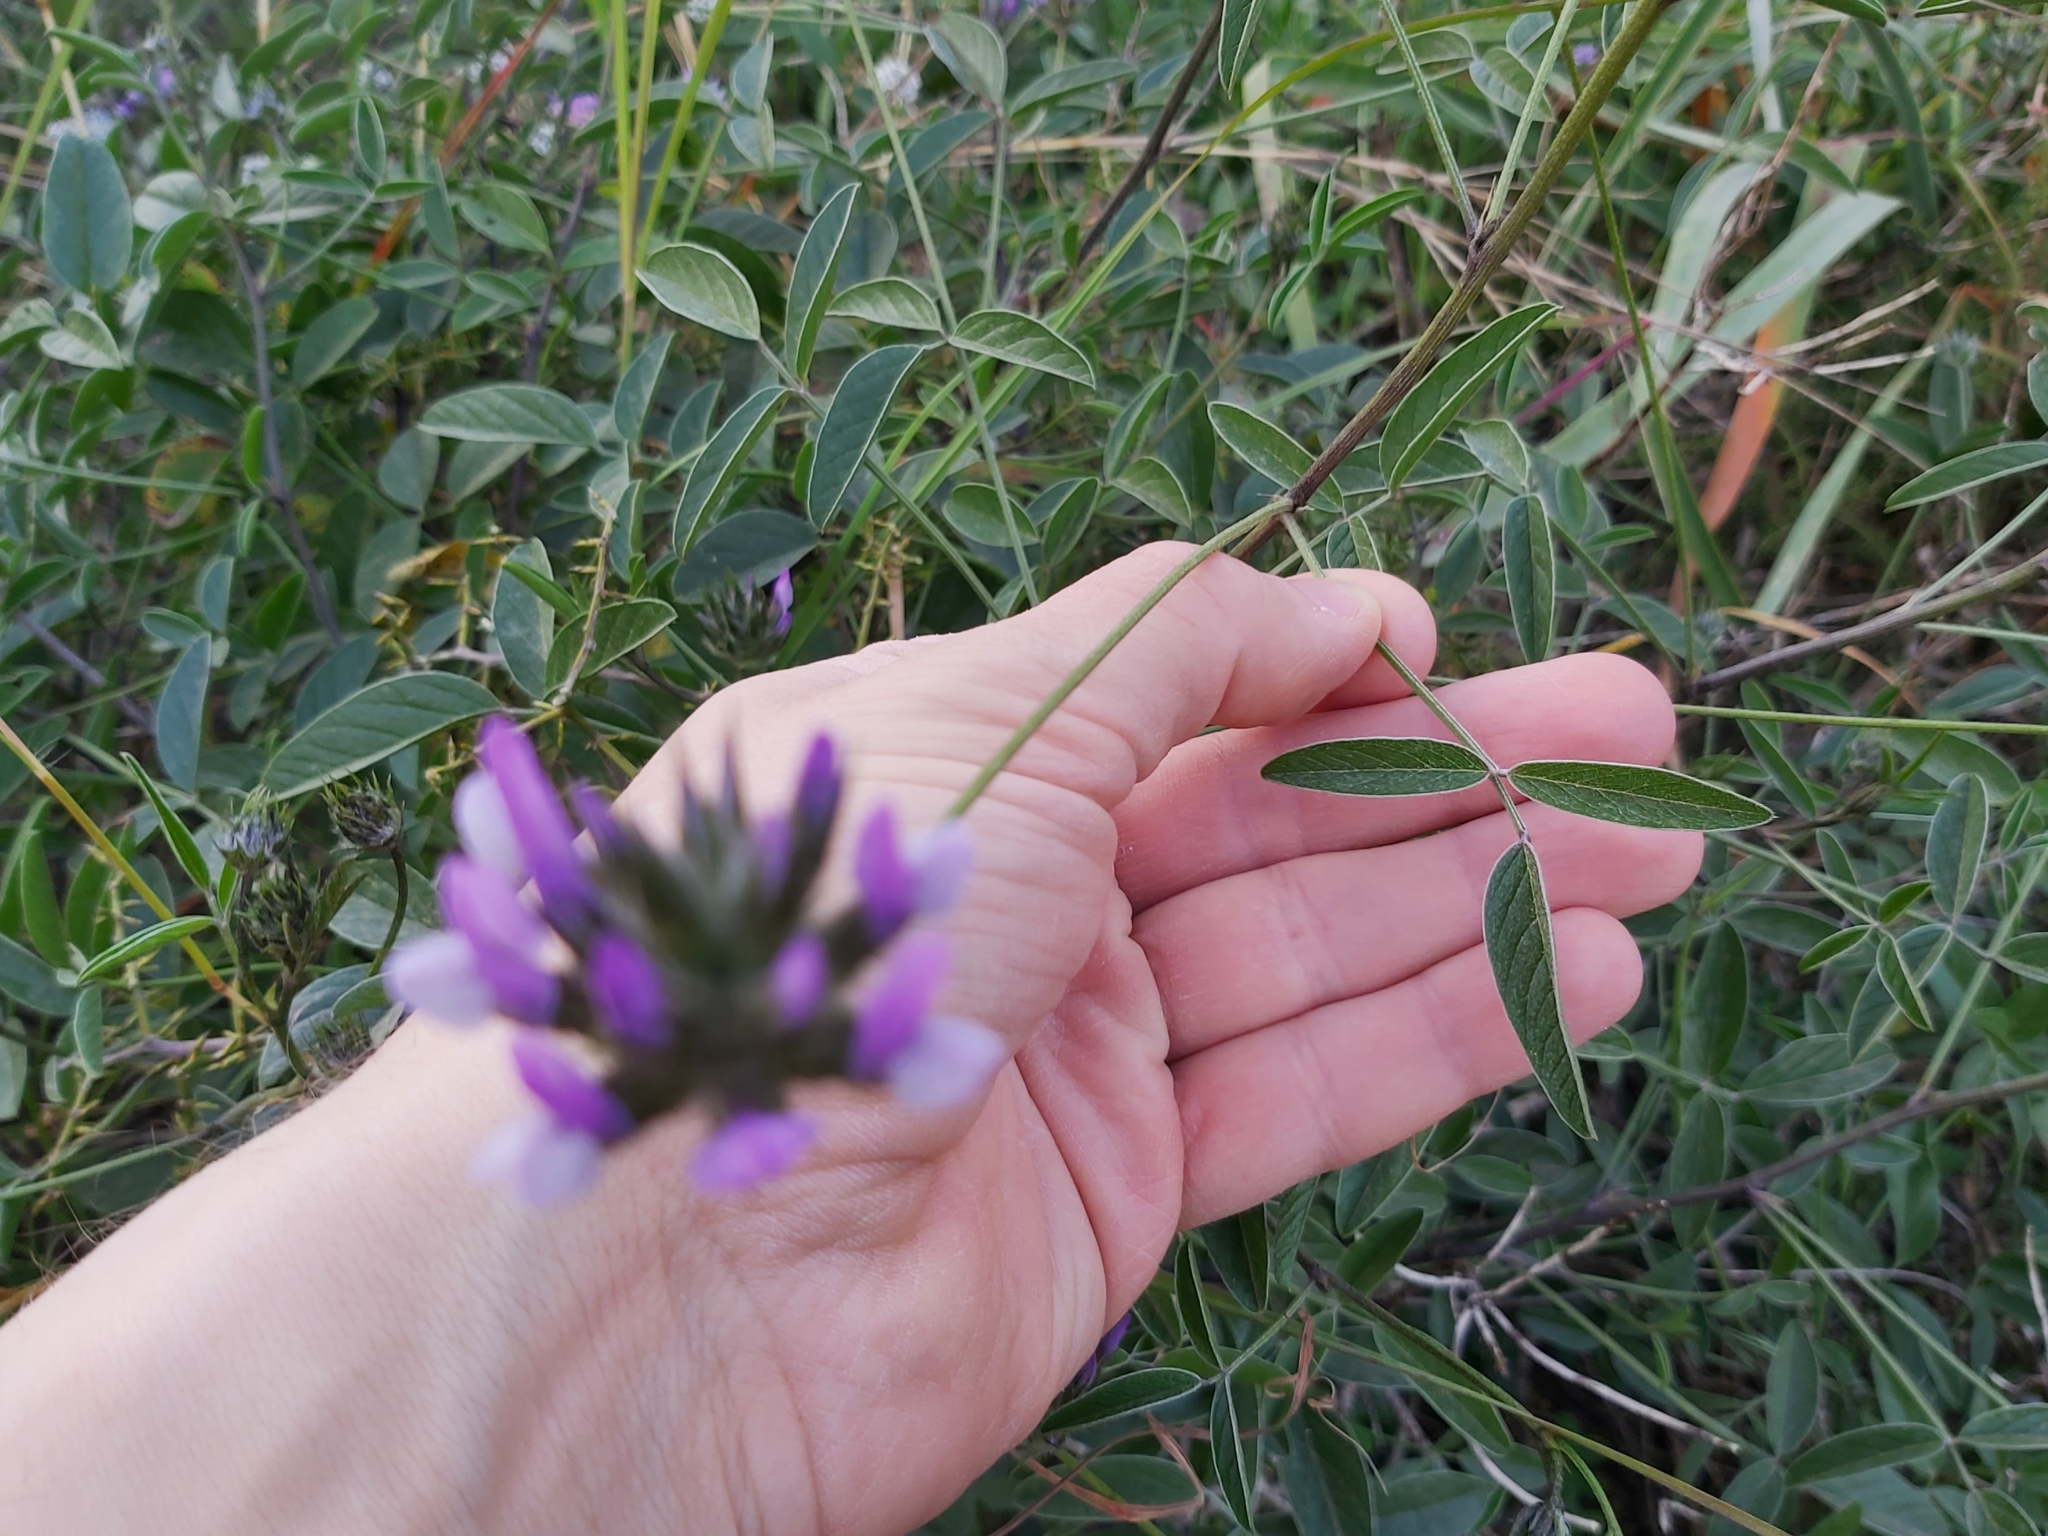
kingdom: Plantae
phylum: Tracheophyta
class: Magnoliopsida
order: Fabales
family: Fabaceae
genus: Bituminaria
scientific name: Bituminaria bituminosa
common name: Arabian pea
